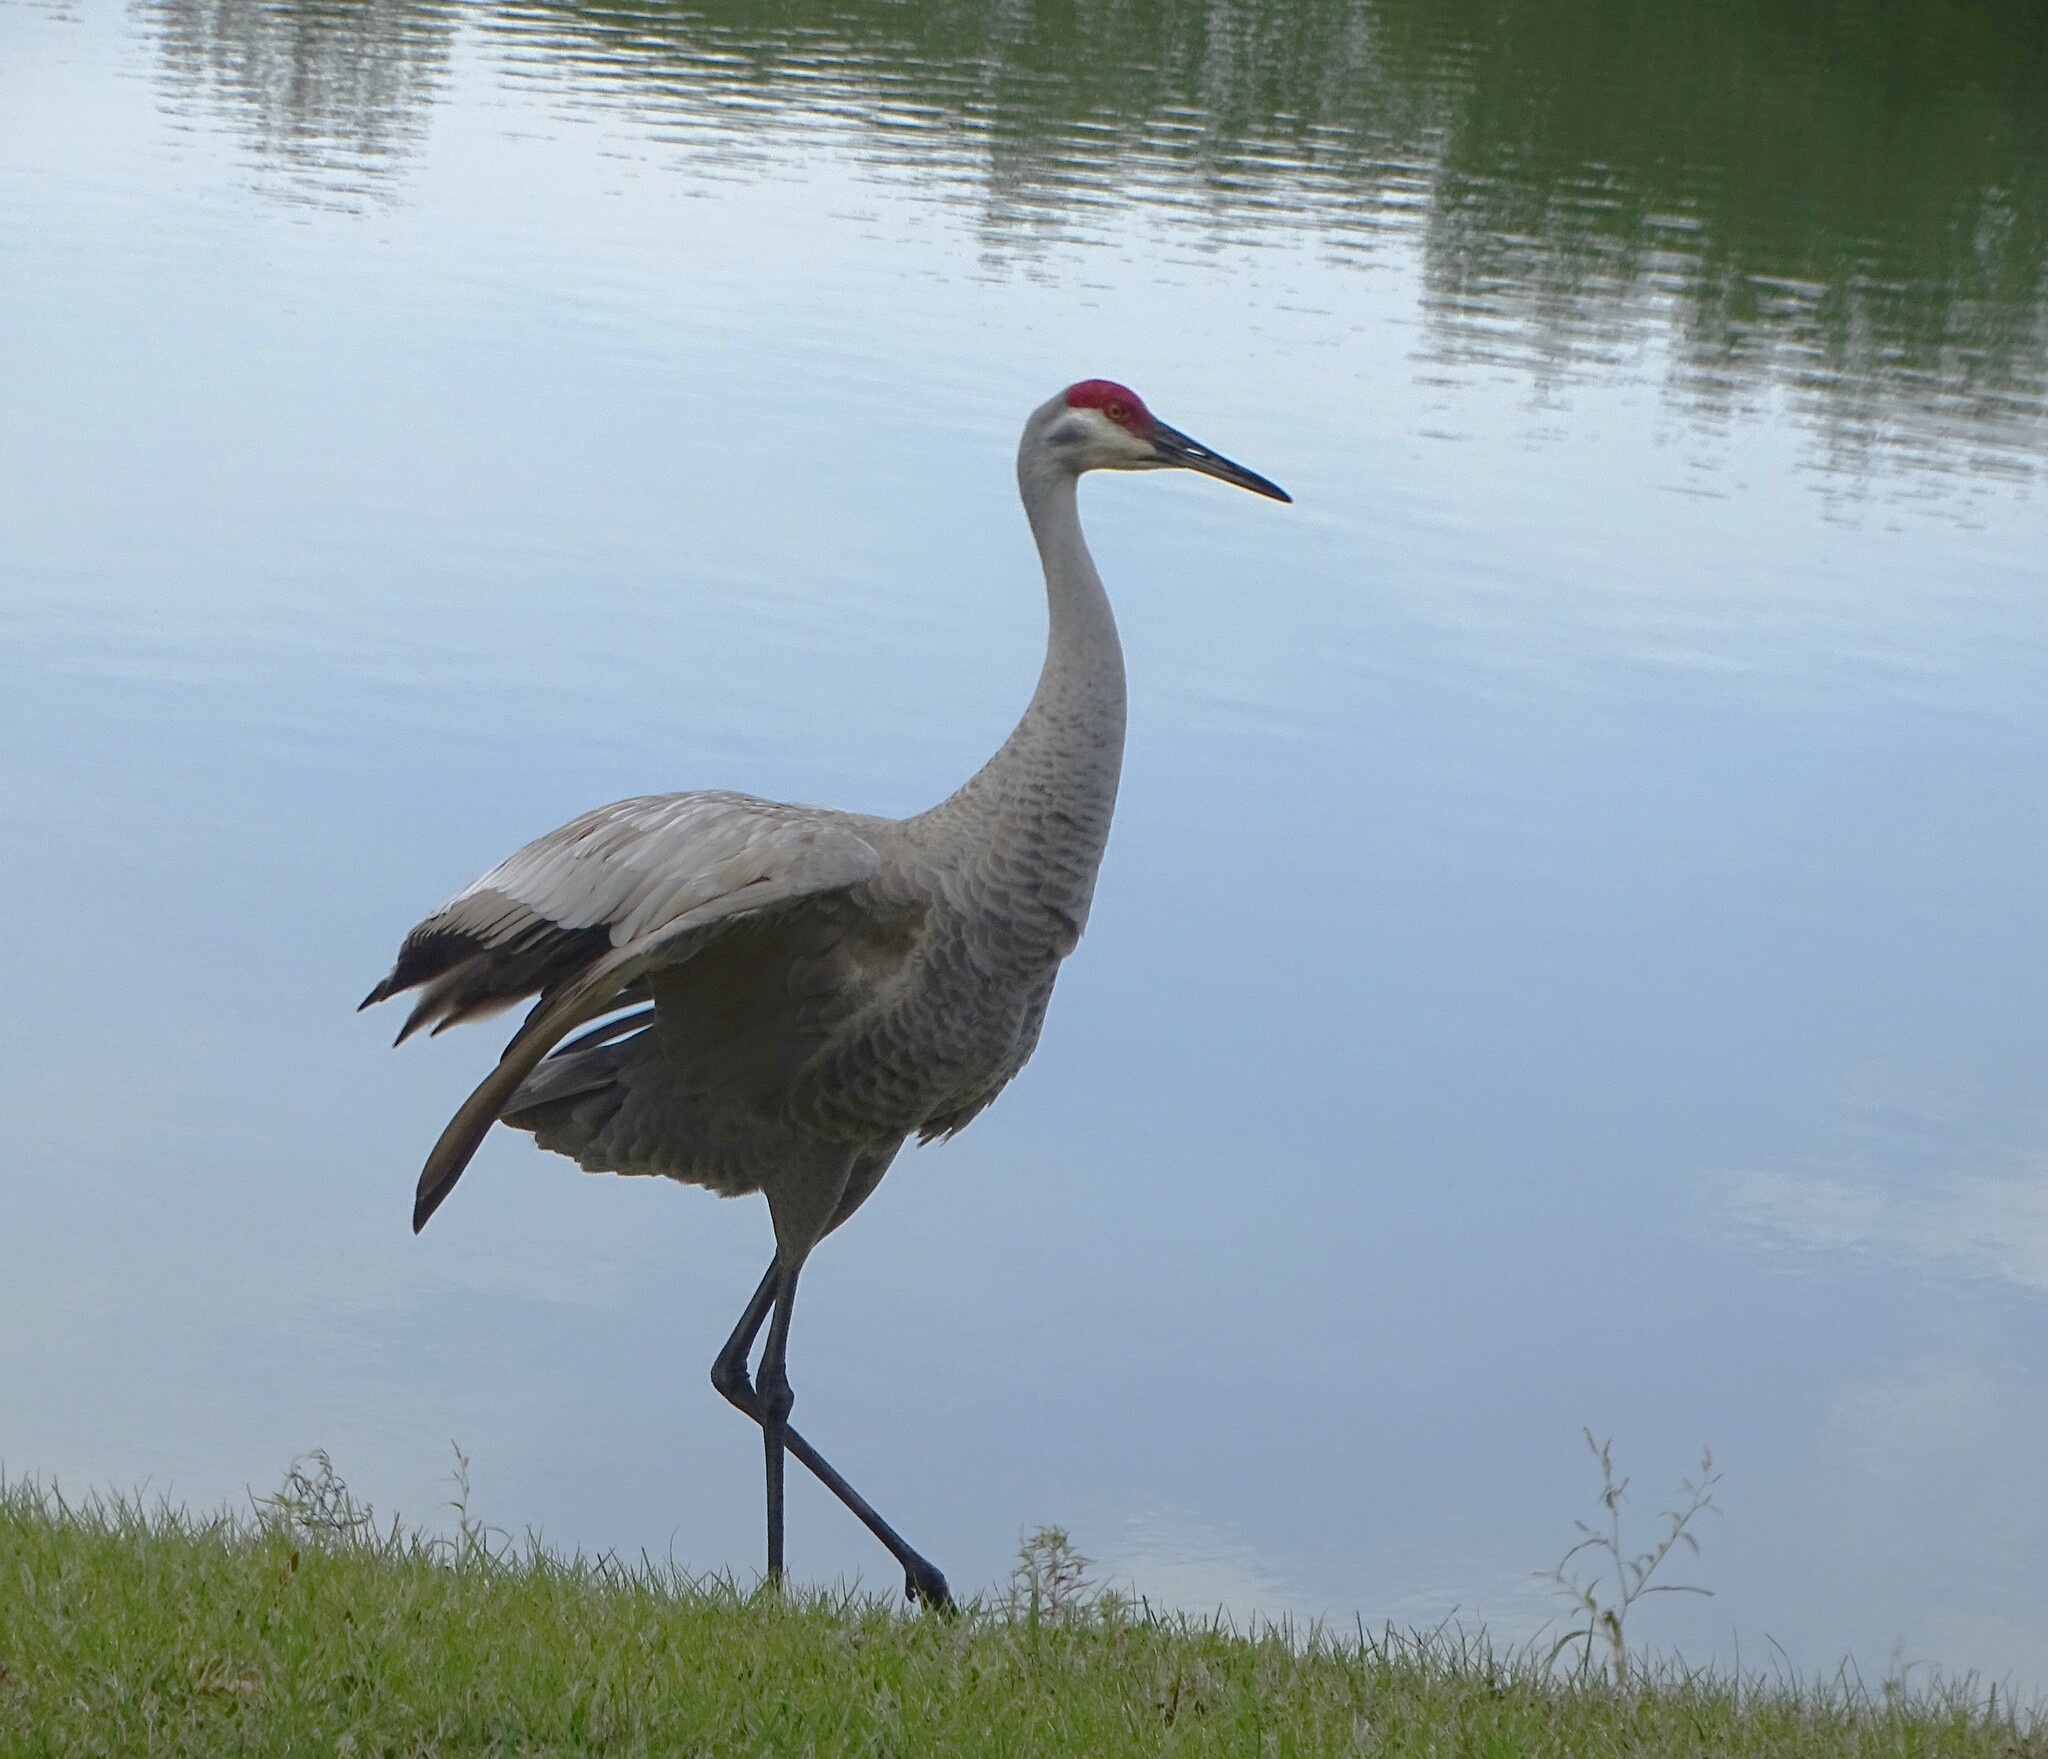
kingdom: Animalia
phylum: Chordata
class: Aves
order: Gruiformes
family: Gruidae
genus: Grus
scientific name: Grus canadensis
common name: Sandhill crane
